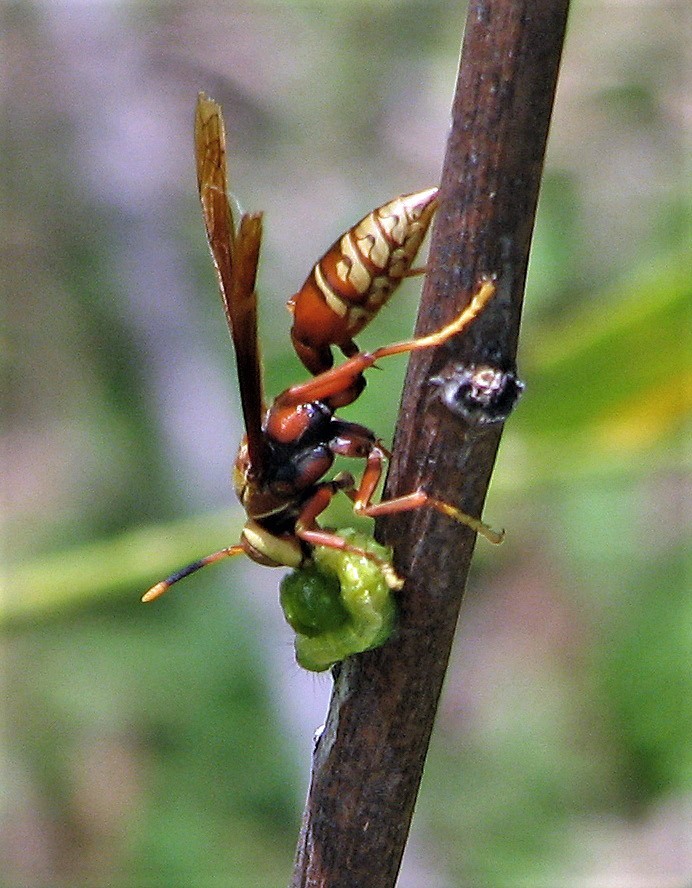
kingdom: Animalia
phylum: Arthropoda
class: Insecta
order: Hymenoptera
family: Eumenidae
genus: Polistes
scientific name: Polistes cavapyta
